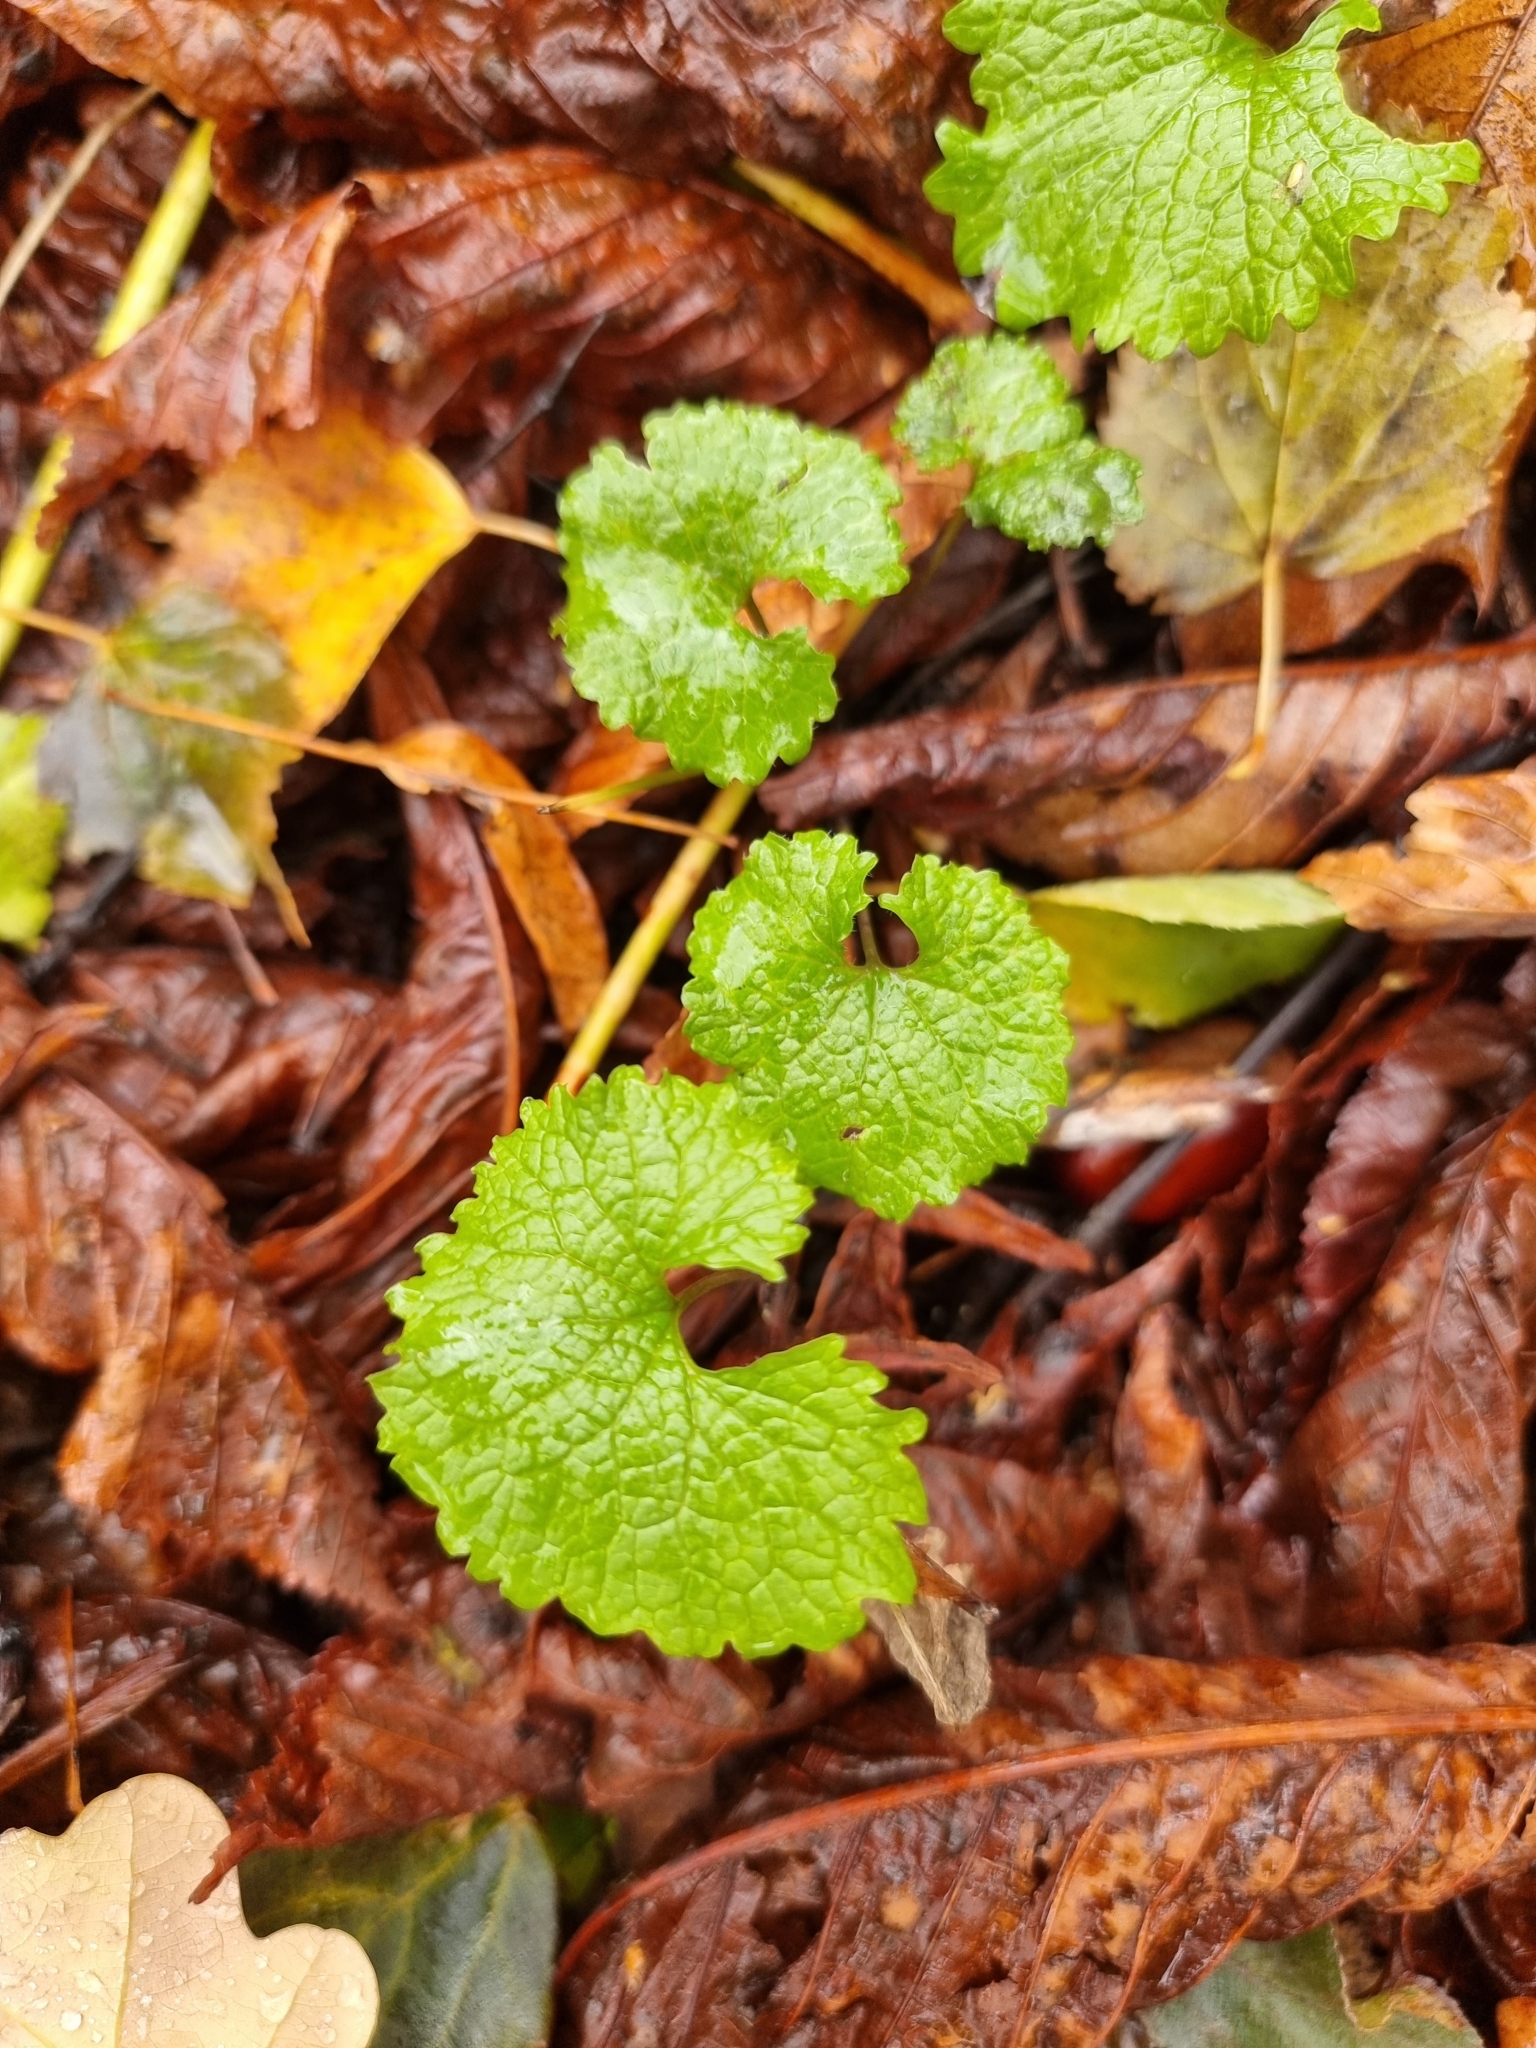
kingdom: Plantae
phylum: Tracheophyta
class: Magnoliopsida
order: Brassicales
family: Brassicaceae
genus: Alliaria
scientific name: Alliaria petiolata
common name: Garlic mustard
